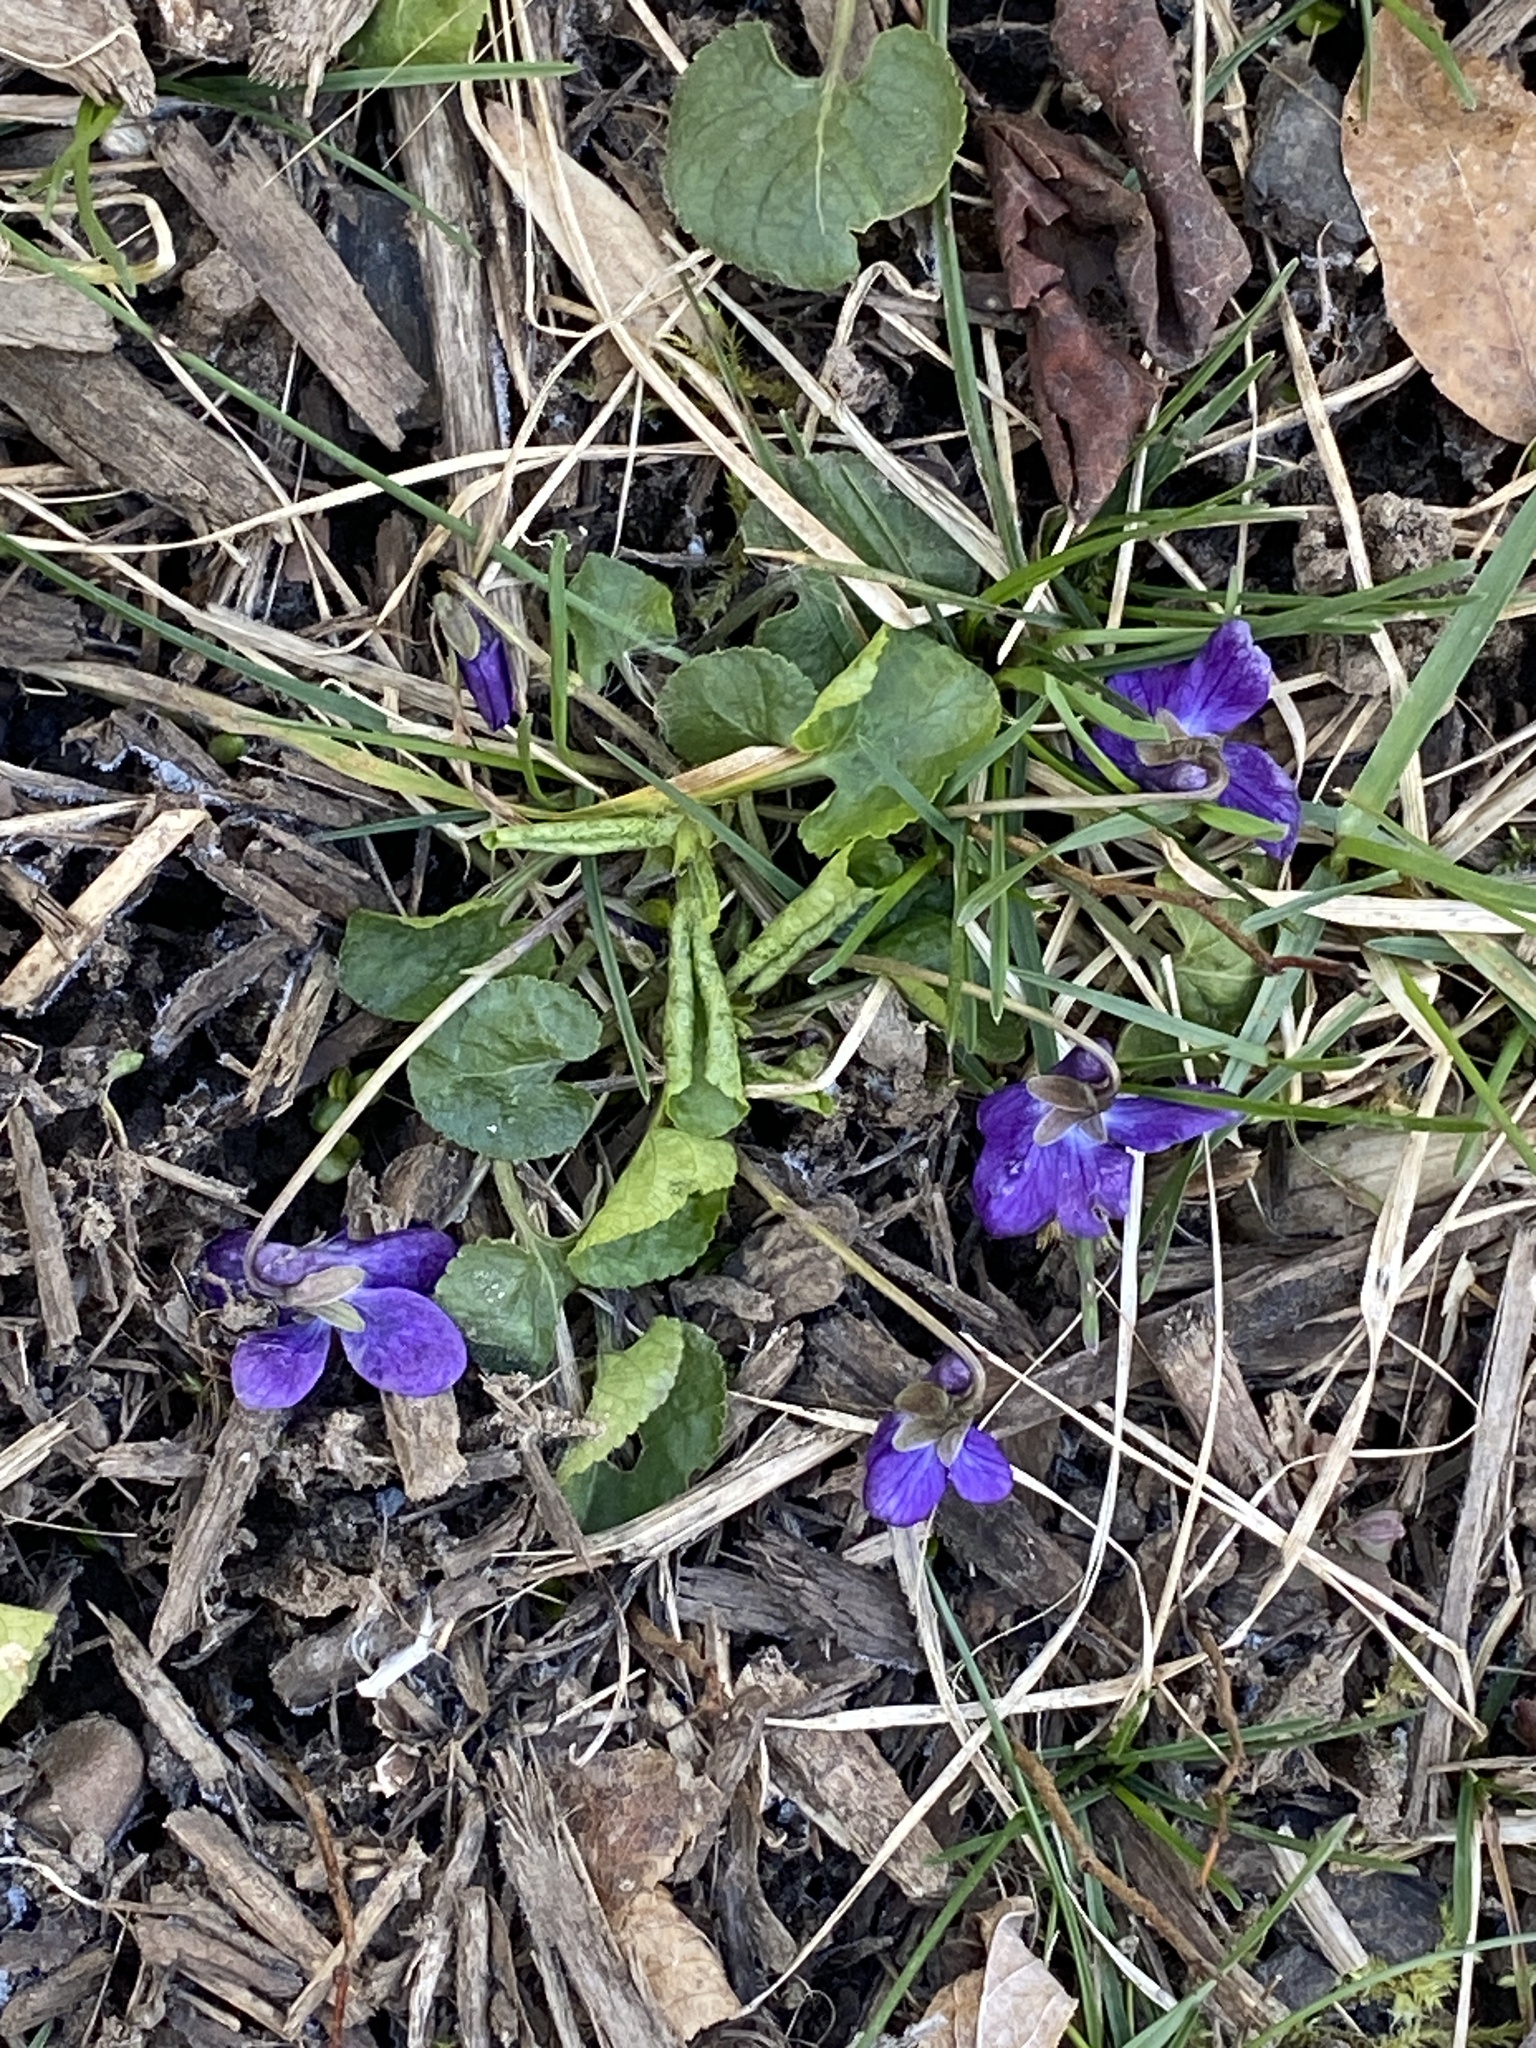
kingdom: Plantae
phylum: Tracheophyta
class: Magnoliopsida
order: Malpighiales
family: Violaceae
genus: Viola
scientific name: Viola odorata
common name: Sweet violet
